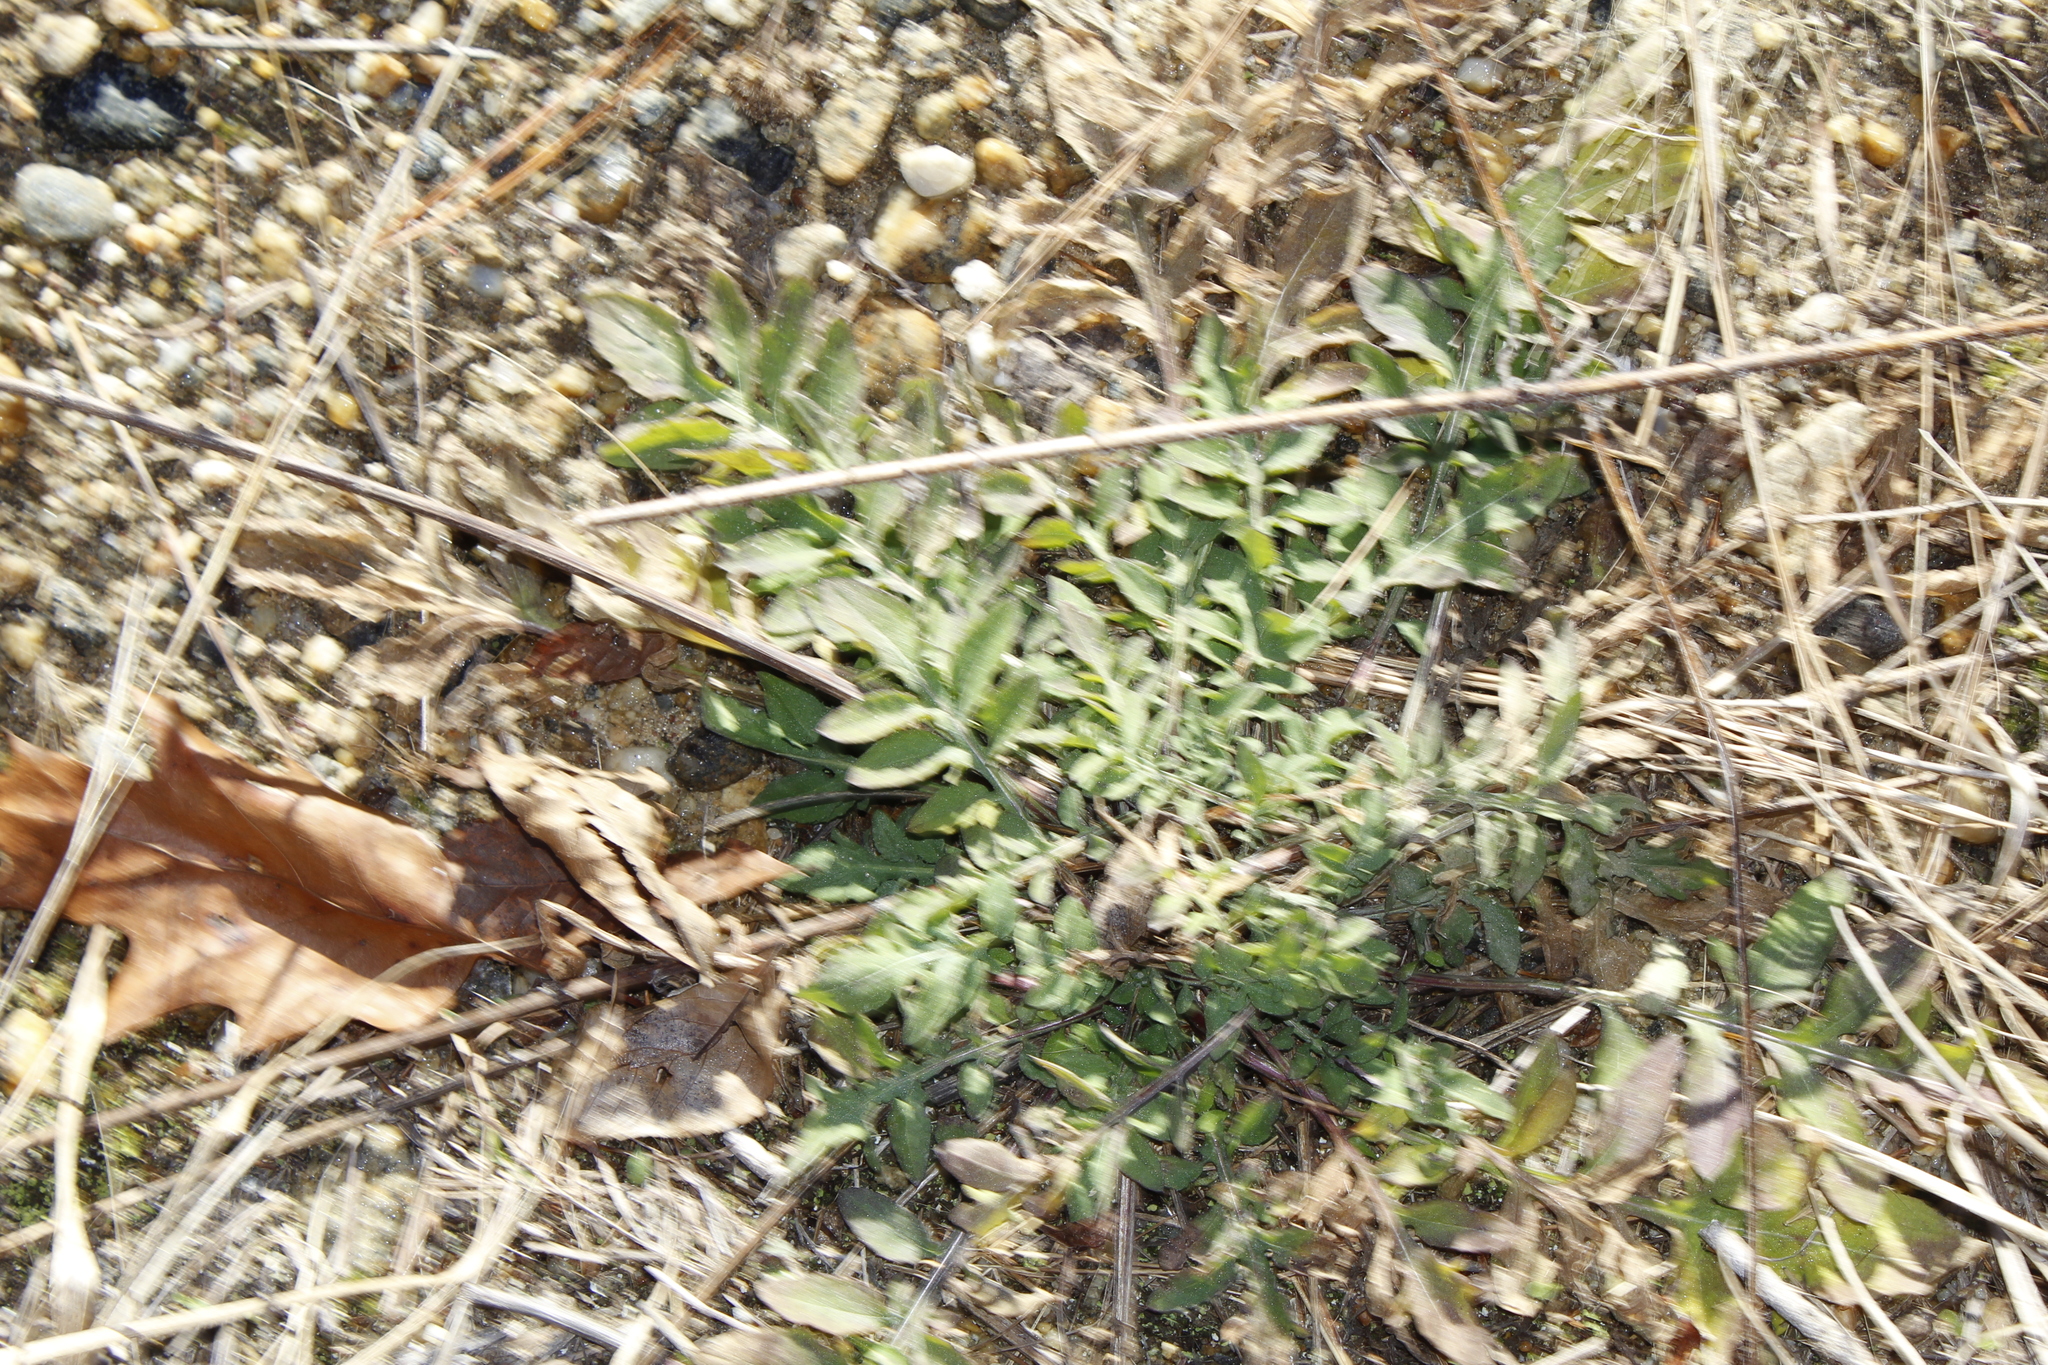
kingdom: Plantae
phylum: Tracheophyta
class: Magnoliopsida
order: Asterales
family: Asteraceae
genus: Centaurea
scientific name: Centaurea stoebe
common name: Spotted knapweed
